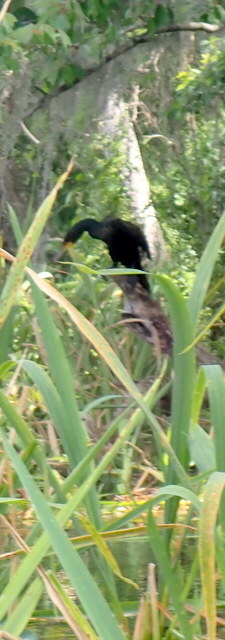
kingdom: Animalia
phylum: Chordata
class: Aves
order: Suliformes
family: Phalacrocoracidae
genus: Phalacrocorax
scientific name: Phalacrocorax auritus
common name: Double-crested cormorant
